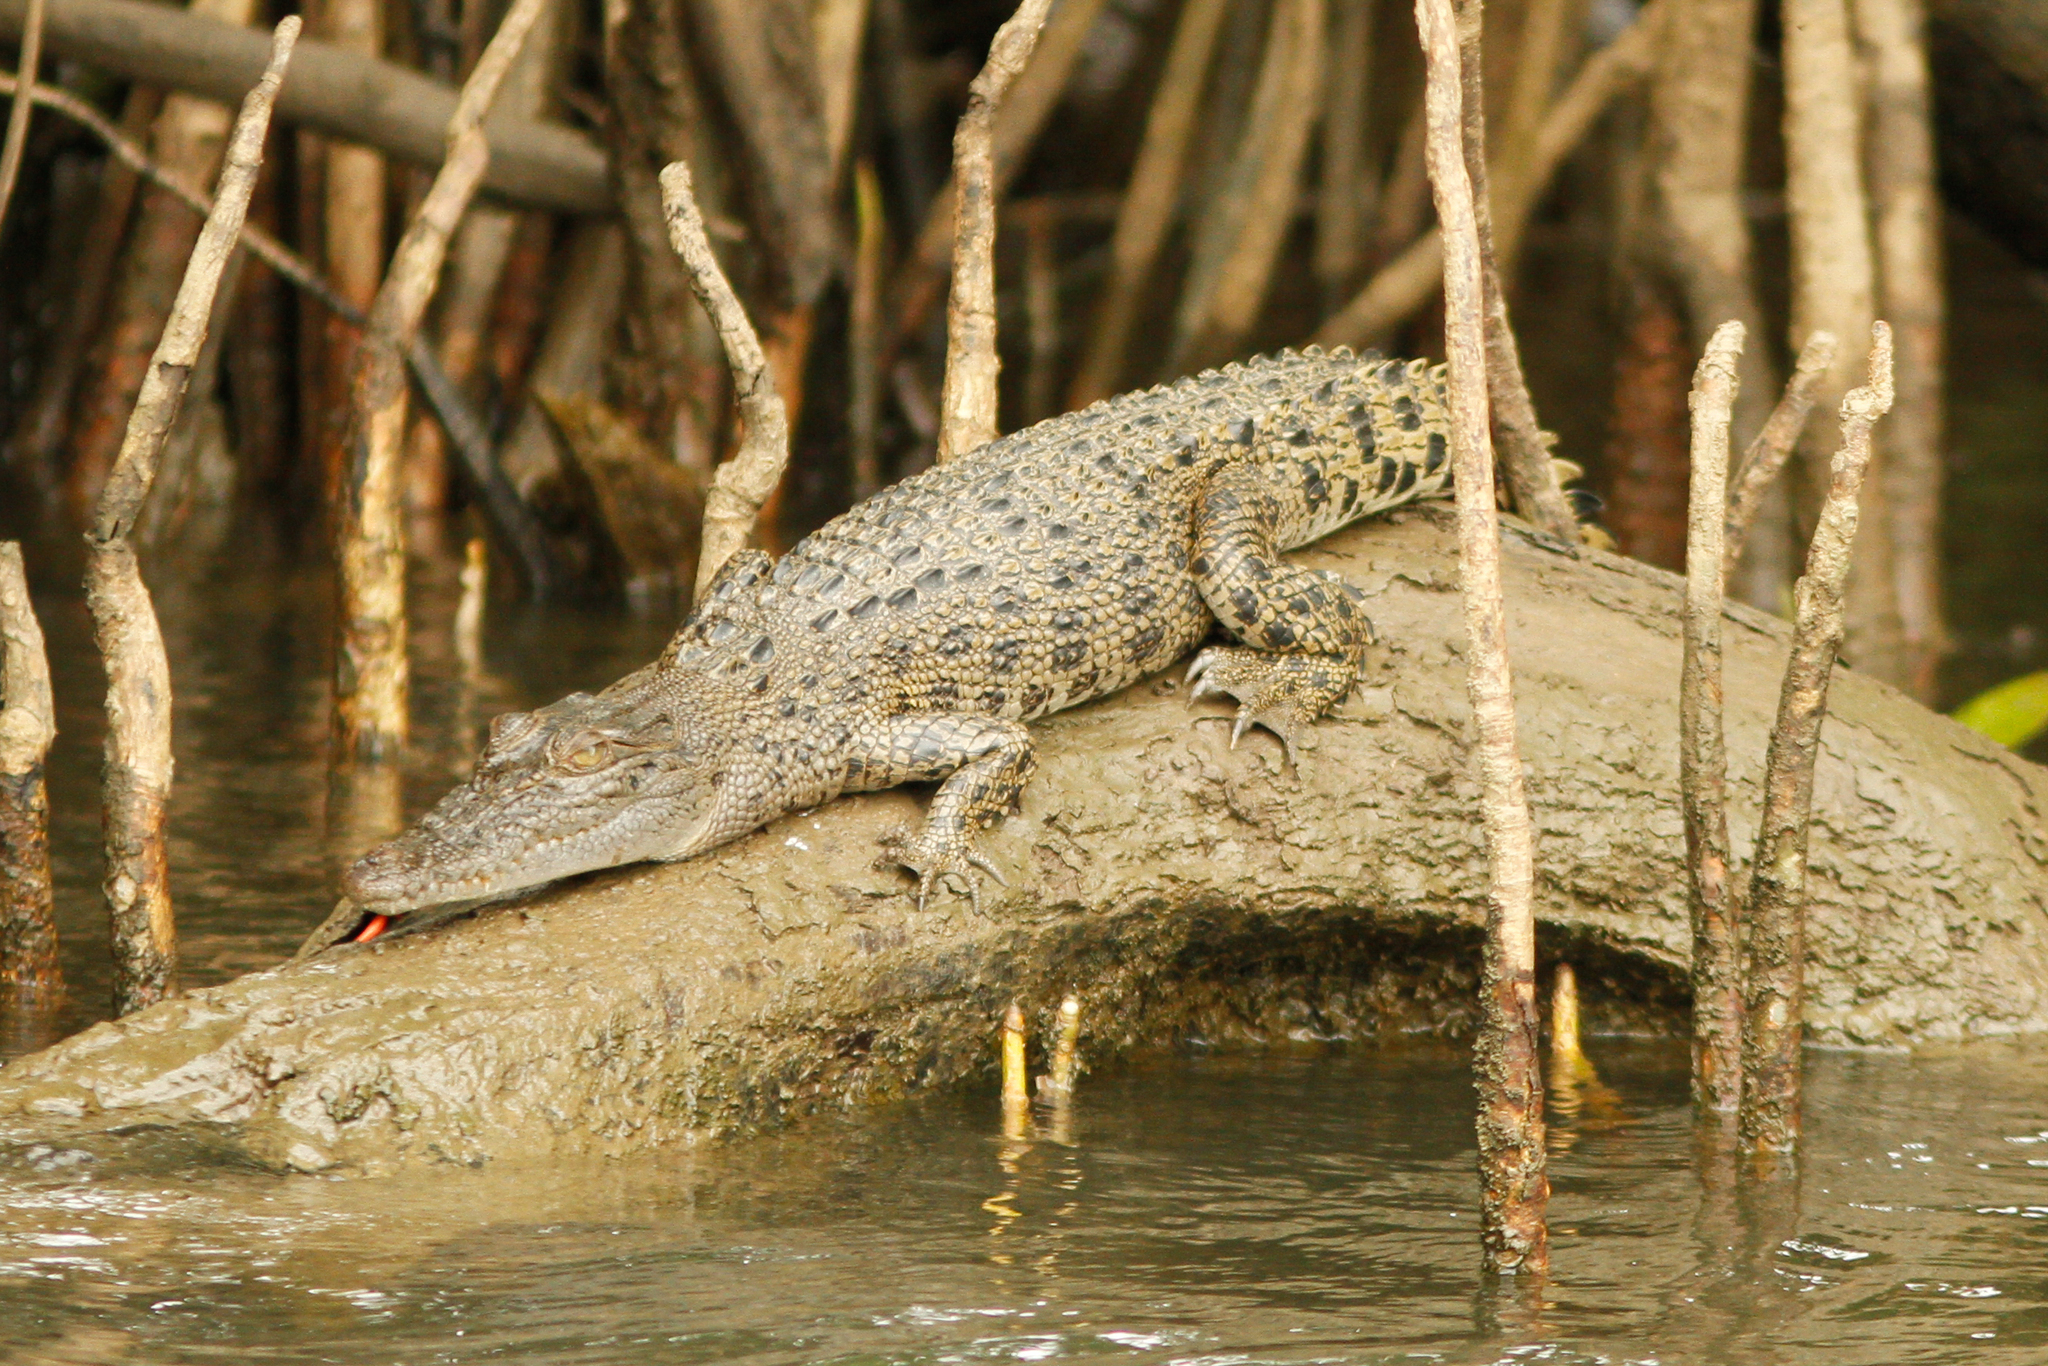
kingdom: Animalia
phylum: Chordata
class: Crocodylia
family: Crocodylidae
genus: Crocodylus
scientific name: Crocodylus porosus
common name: Saltwater crocodile
